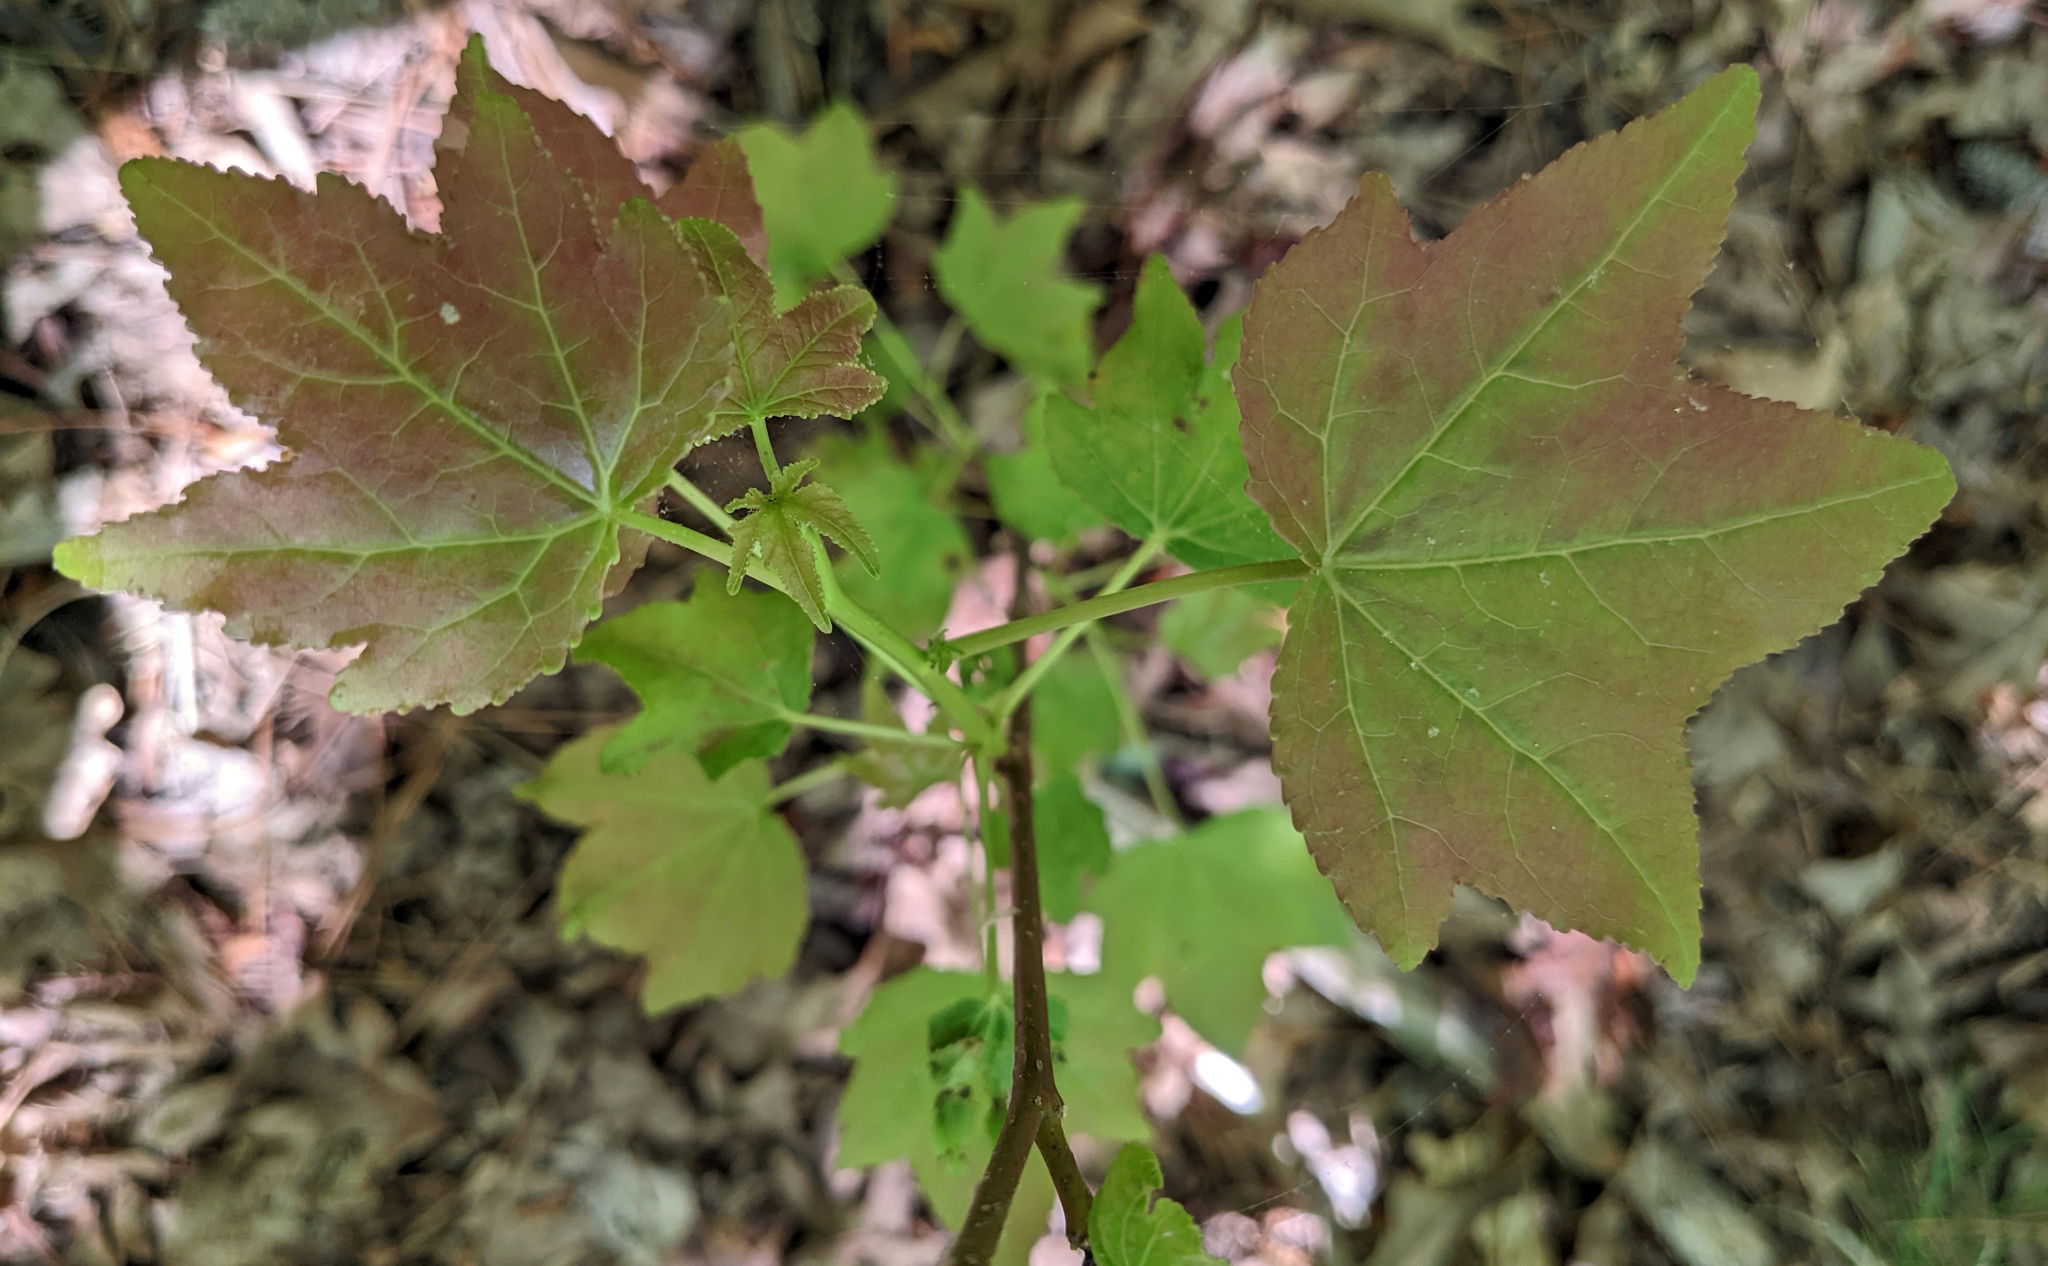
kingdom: Plantae
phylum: Tracheophyta
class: Magnoliopsida
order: Saxifragales
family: Altingiaceae
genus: Liquidambar
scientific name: Liquidambar styraciflua
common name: Sweet gum
